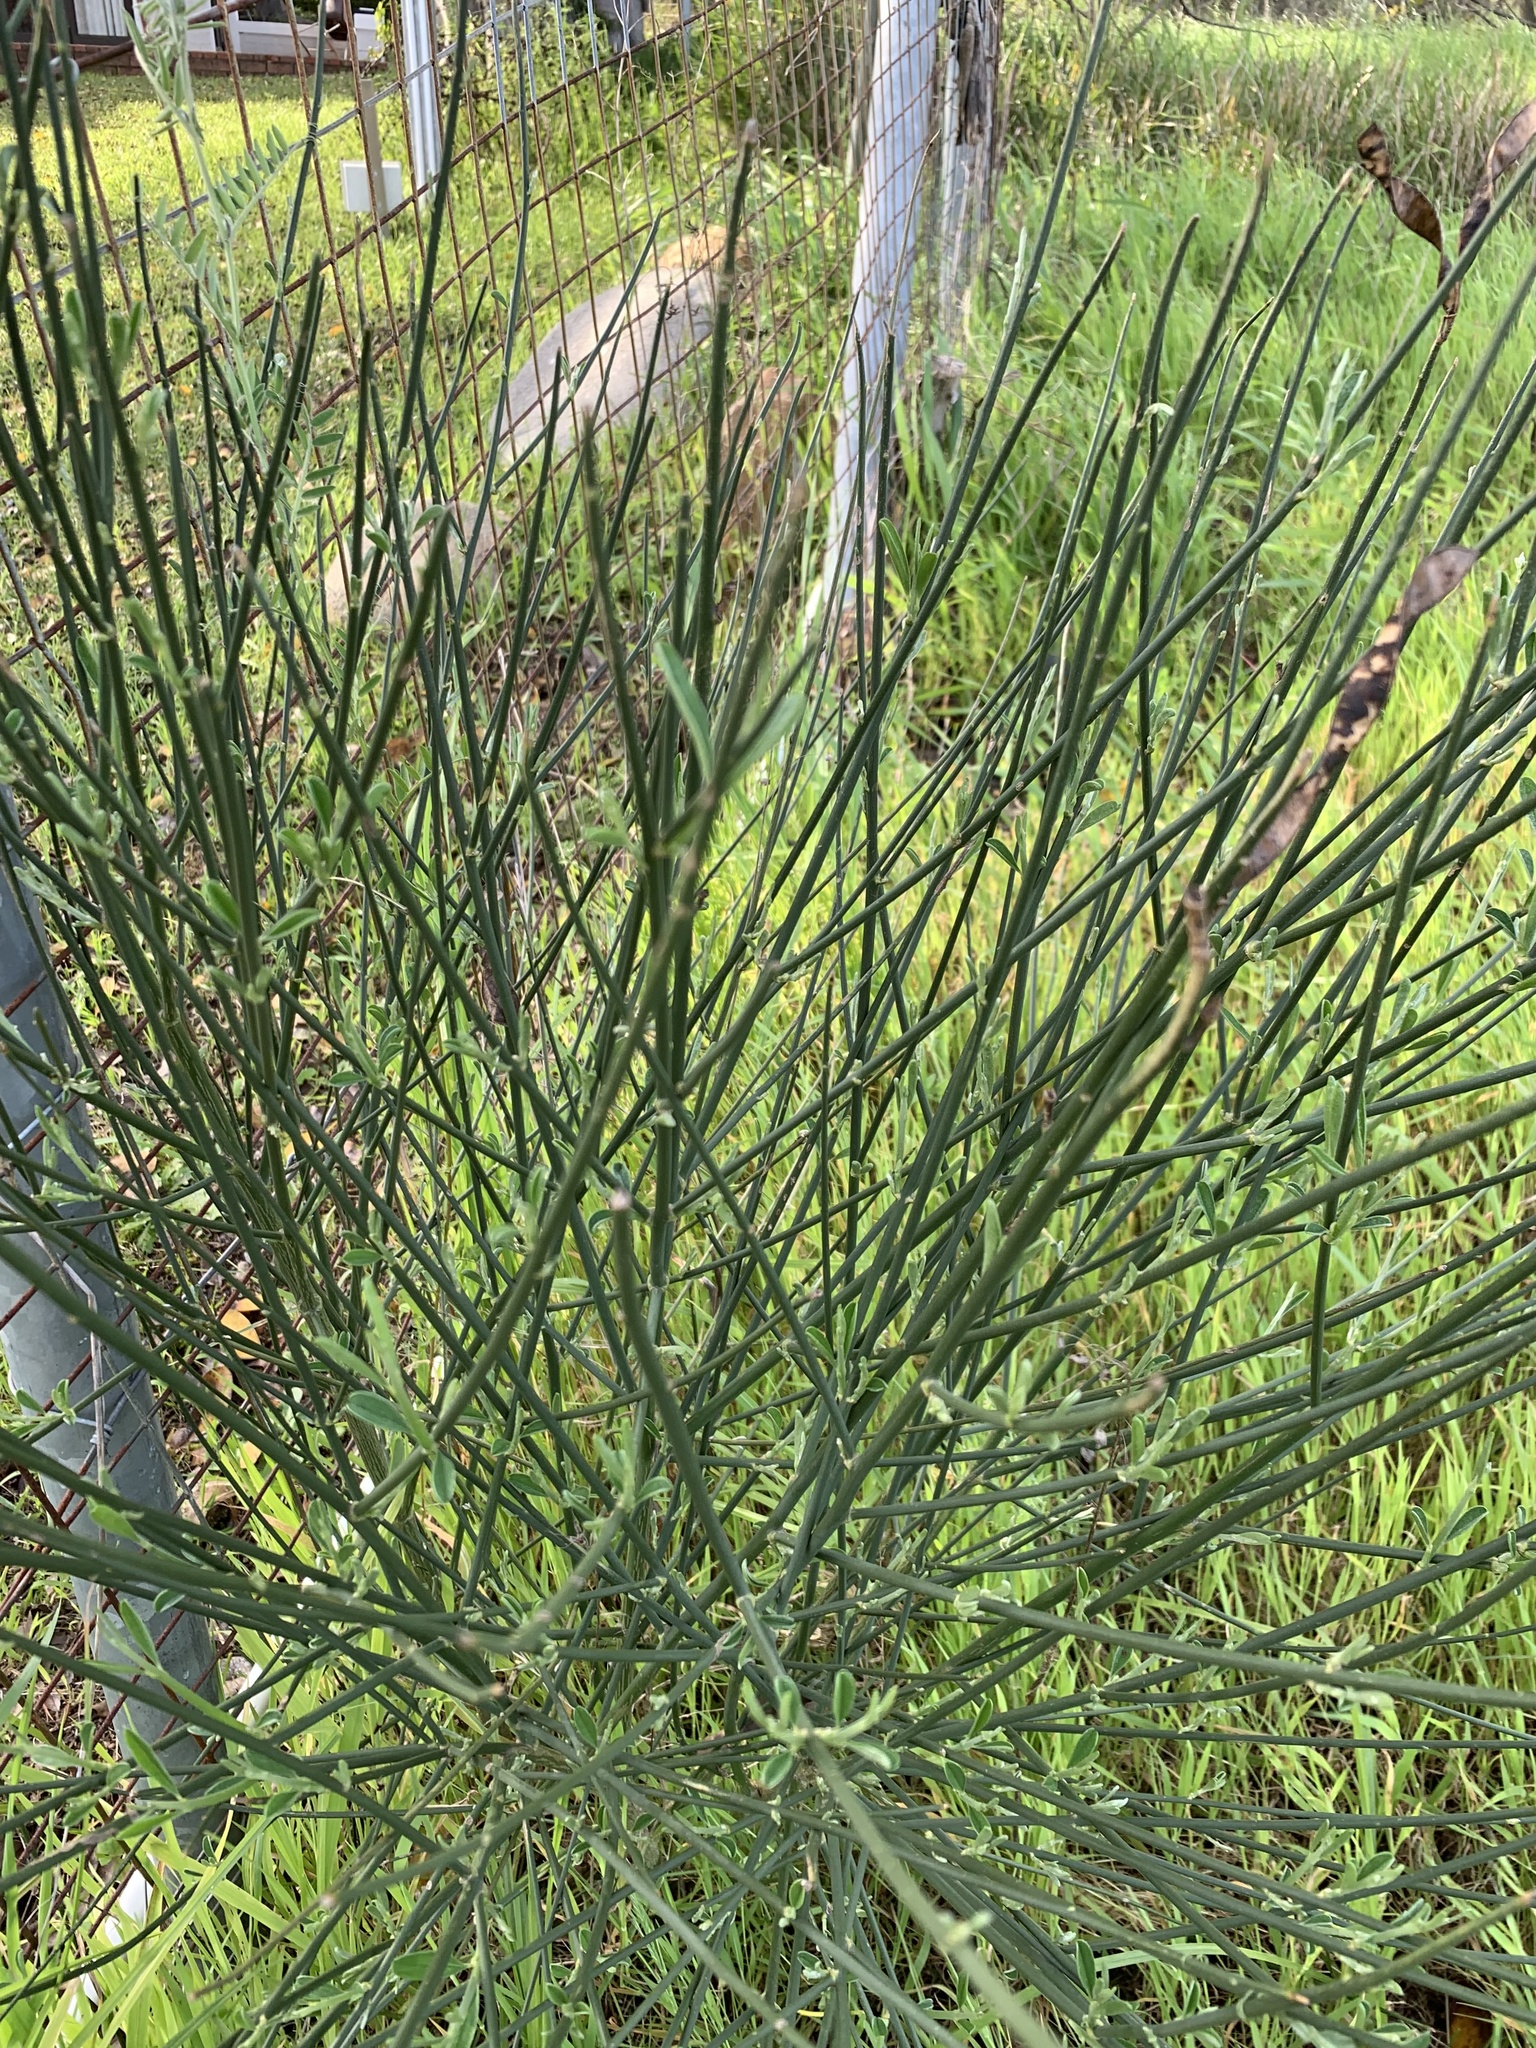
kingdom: Plantae
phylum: Tracheophyta
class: Magnoliopsida
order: Fabales
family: Fabaceae
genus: Spartium
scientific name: Spartium junceum
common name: Spanish broom
